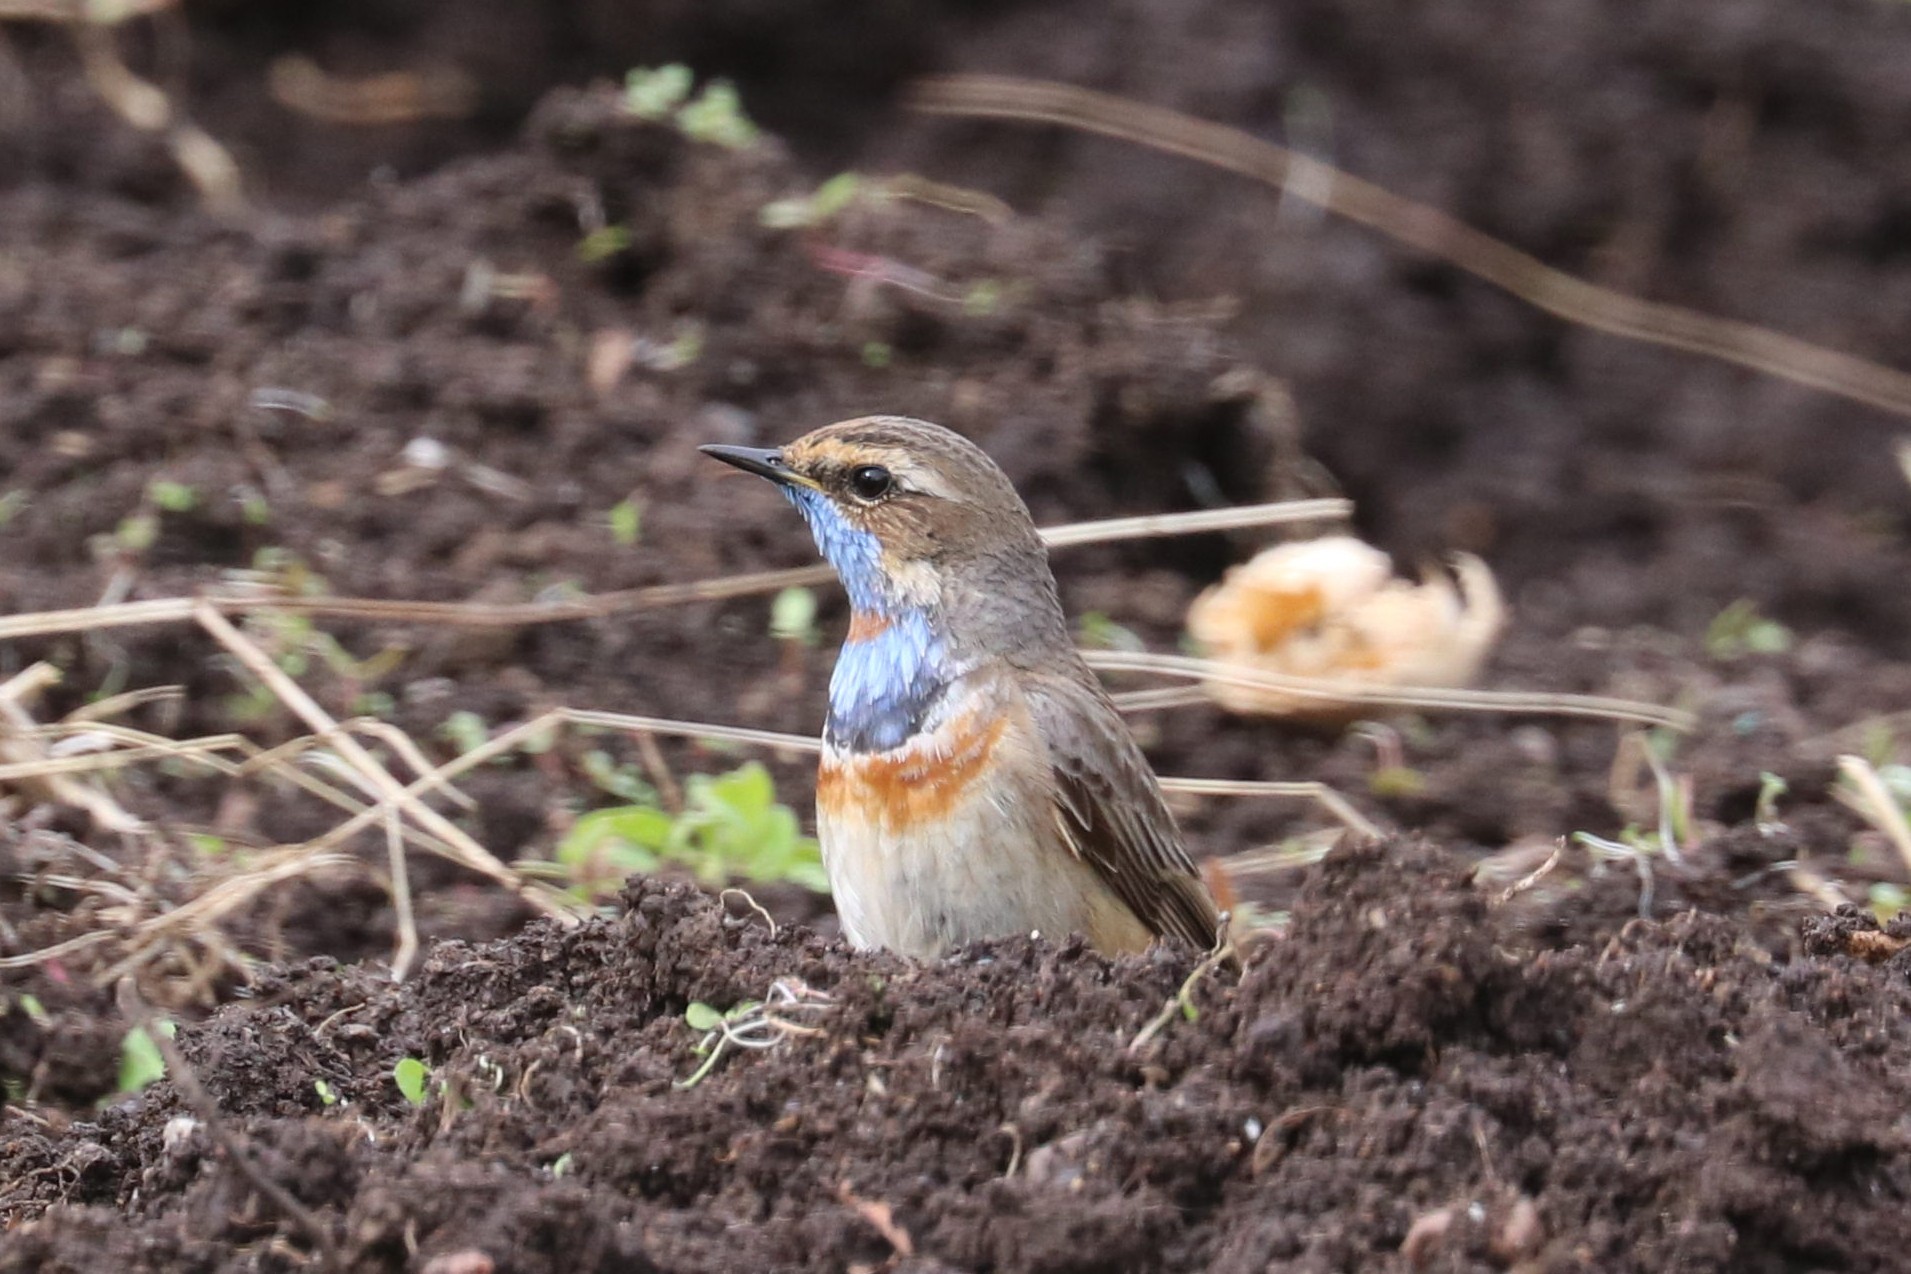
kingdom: Animalia
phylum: Chordata
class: Aves
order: Passeriformes
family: Muscicapidae
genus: Luscinia
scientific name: Luscinia svecica
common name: Bluethroat
